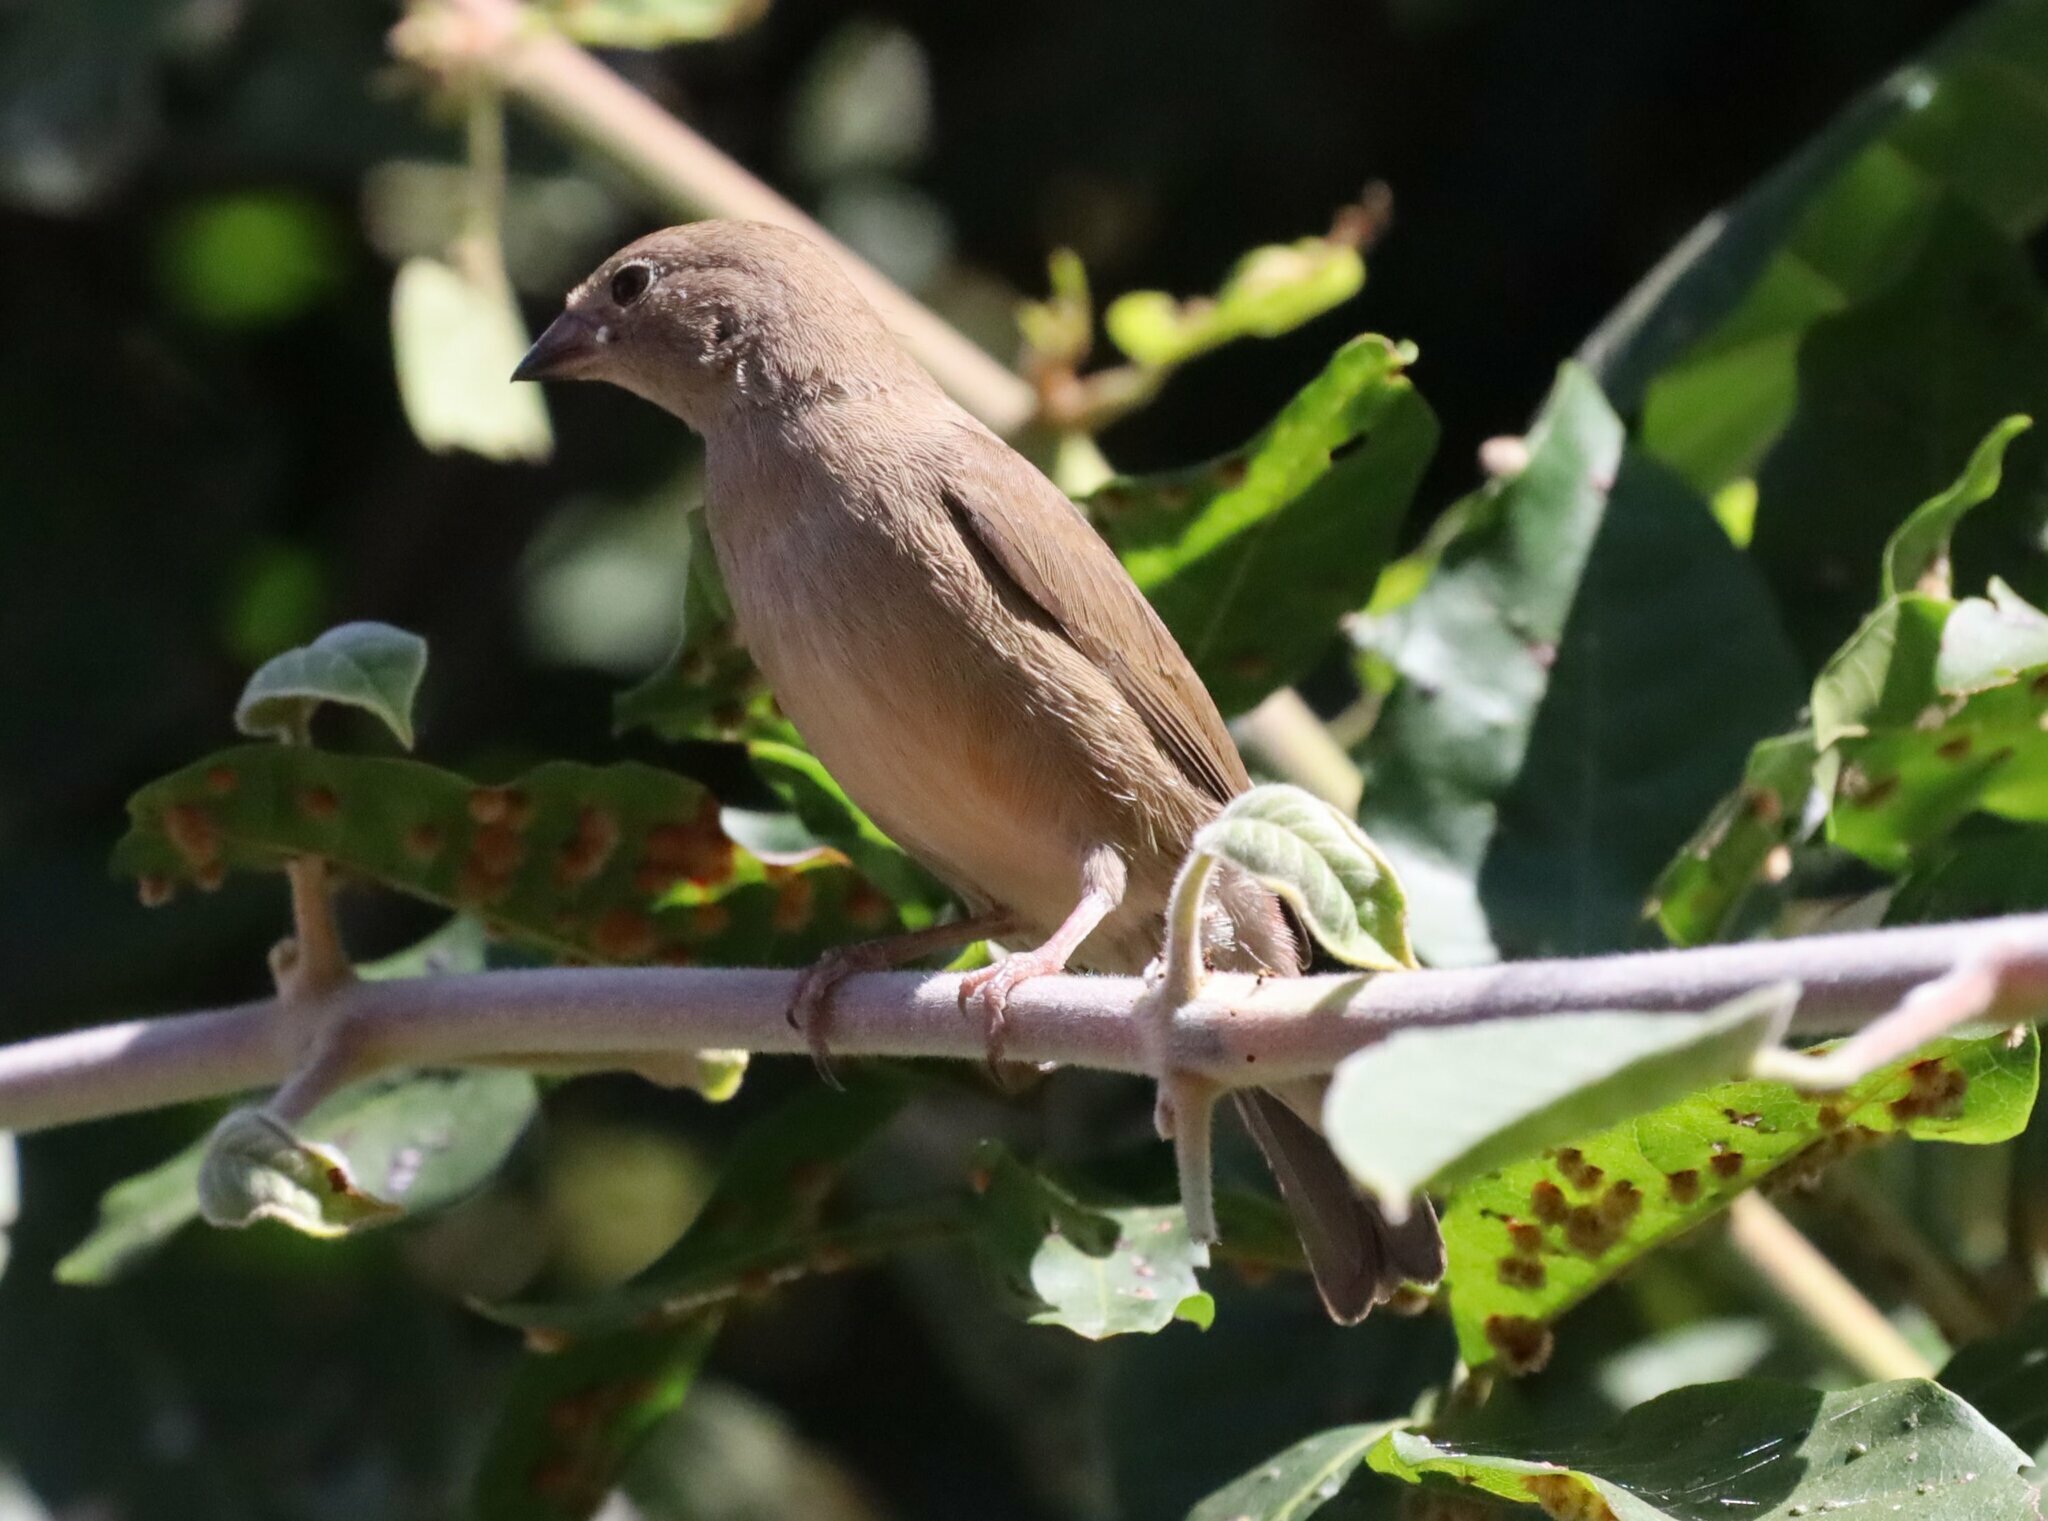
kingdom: Animalia
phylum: Chordata
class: Aves
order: Passeriformes
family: Estrildidae
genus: Lagonosticta
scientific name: Lagonosticta senegala
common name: Red-billed firefinch
